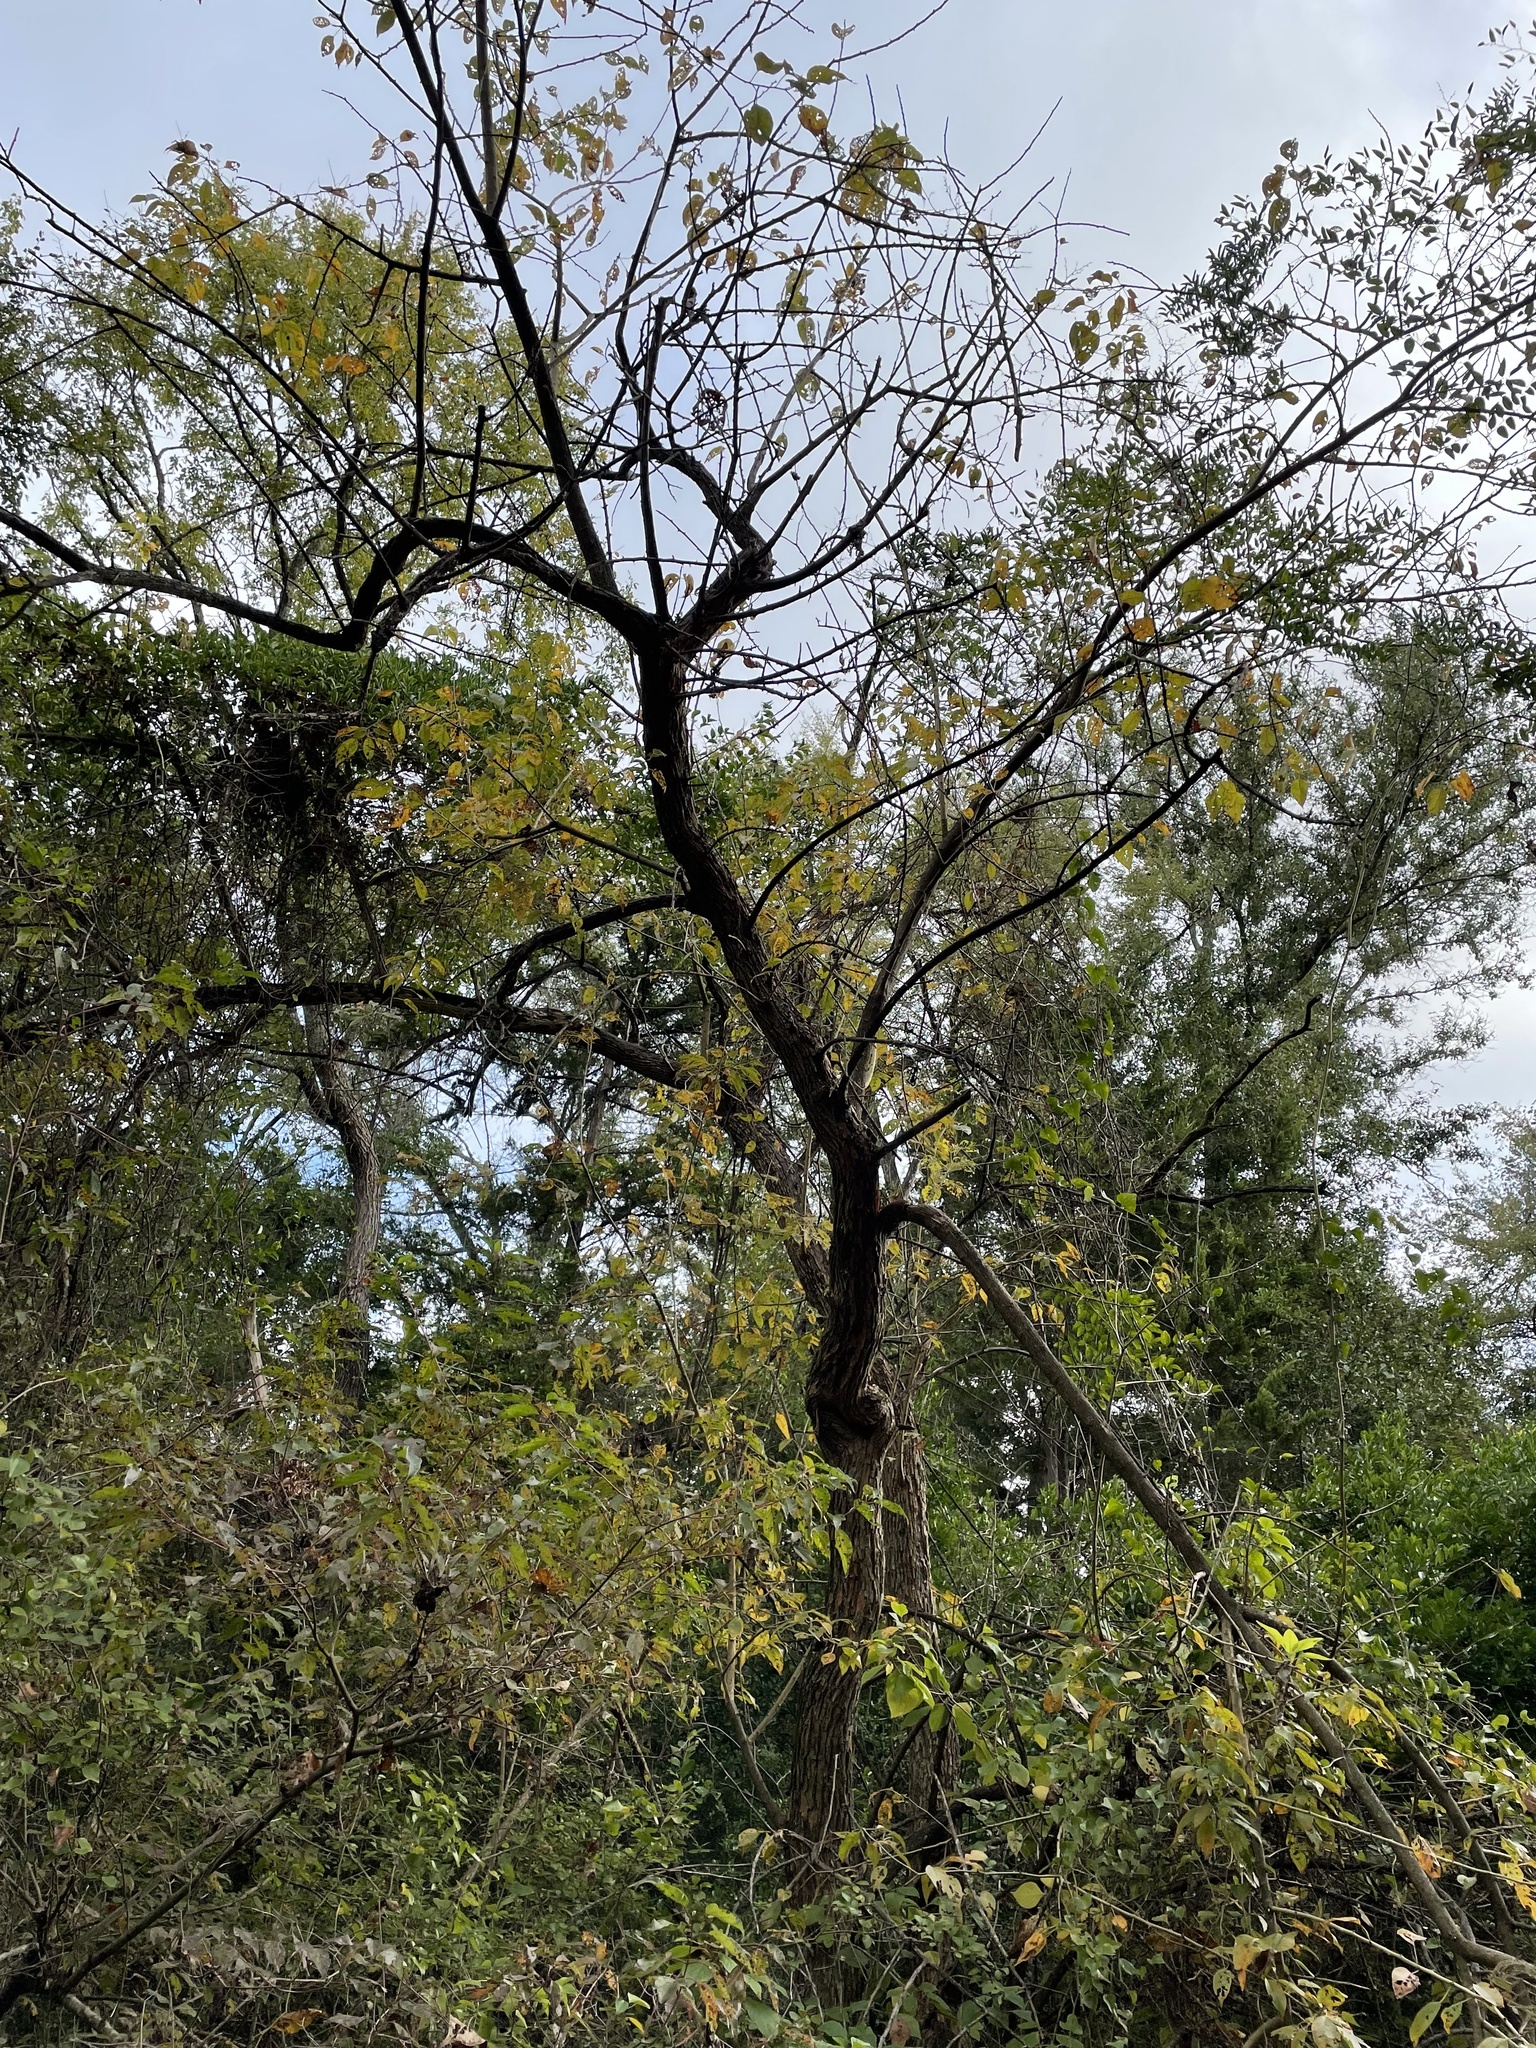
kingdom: Plantae
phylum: Tracheophyta
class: Magnoliopsida
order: Rosales
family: Moraceae
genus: Maclura
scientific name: Maclura pomifera
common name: Osage-orange
